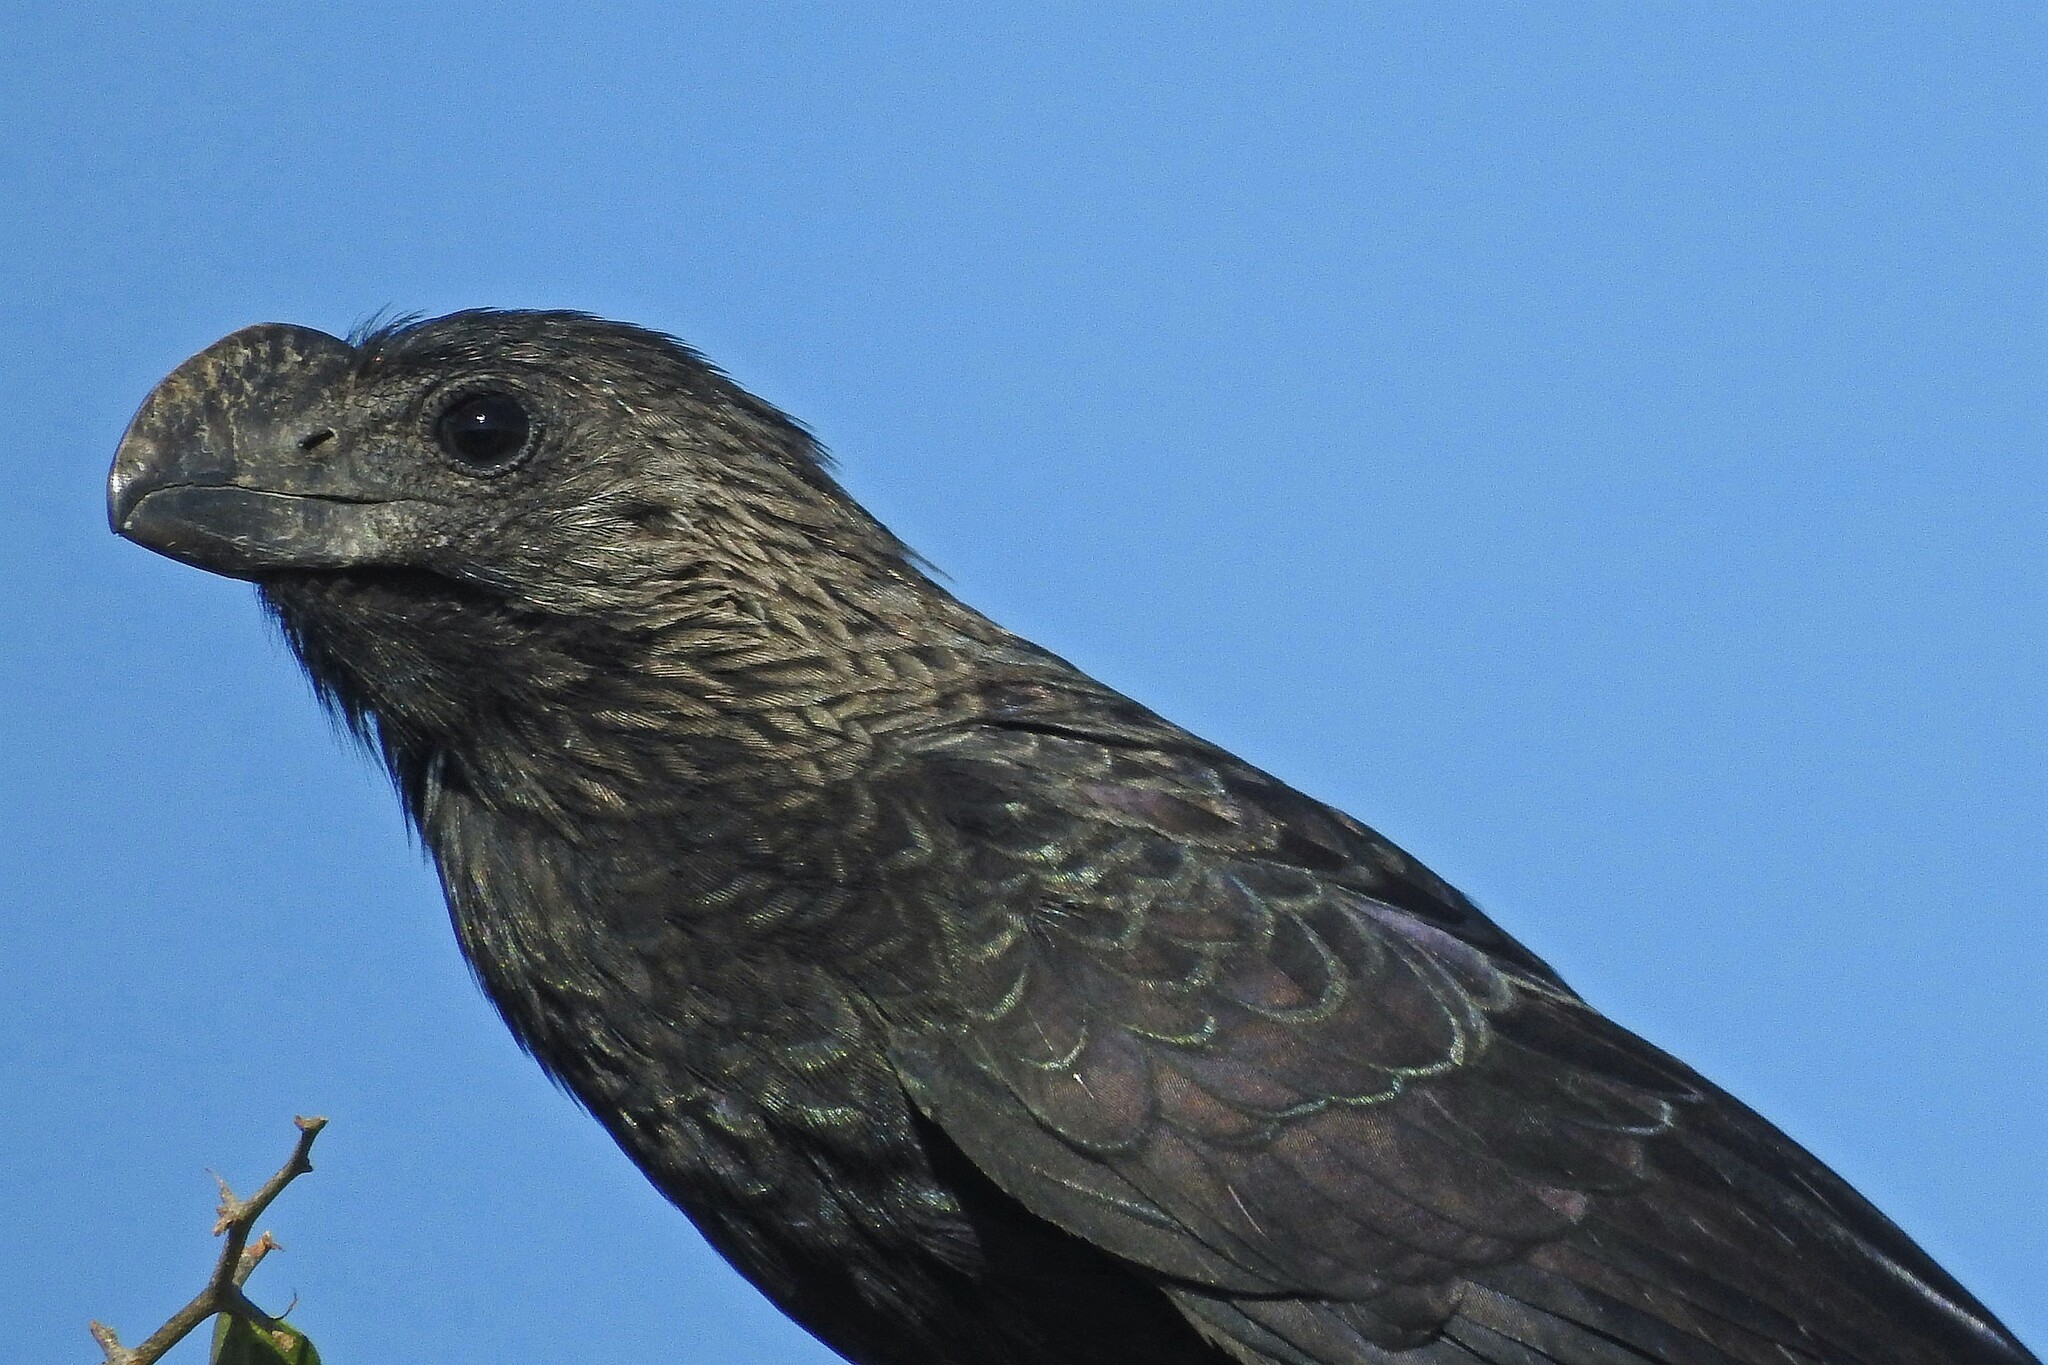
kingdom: Animalia
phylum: Chordata
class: Aves
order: Cuculiformes
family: Cuculidae
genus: Crotophaga
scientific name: Crotophaga ani
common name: Smooth-billed ani
